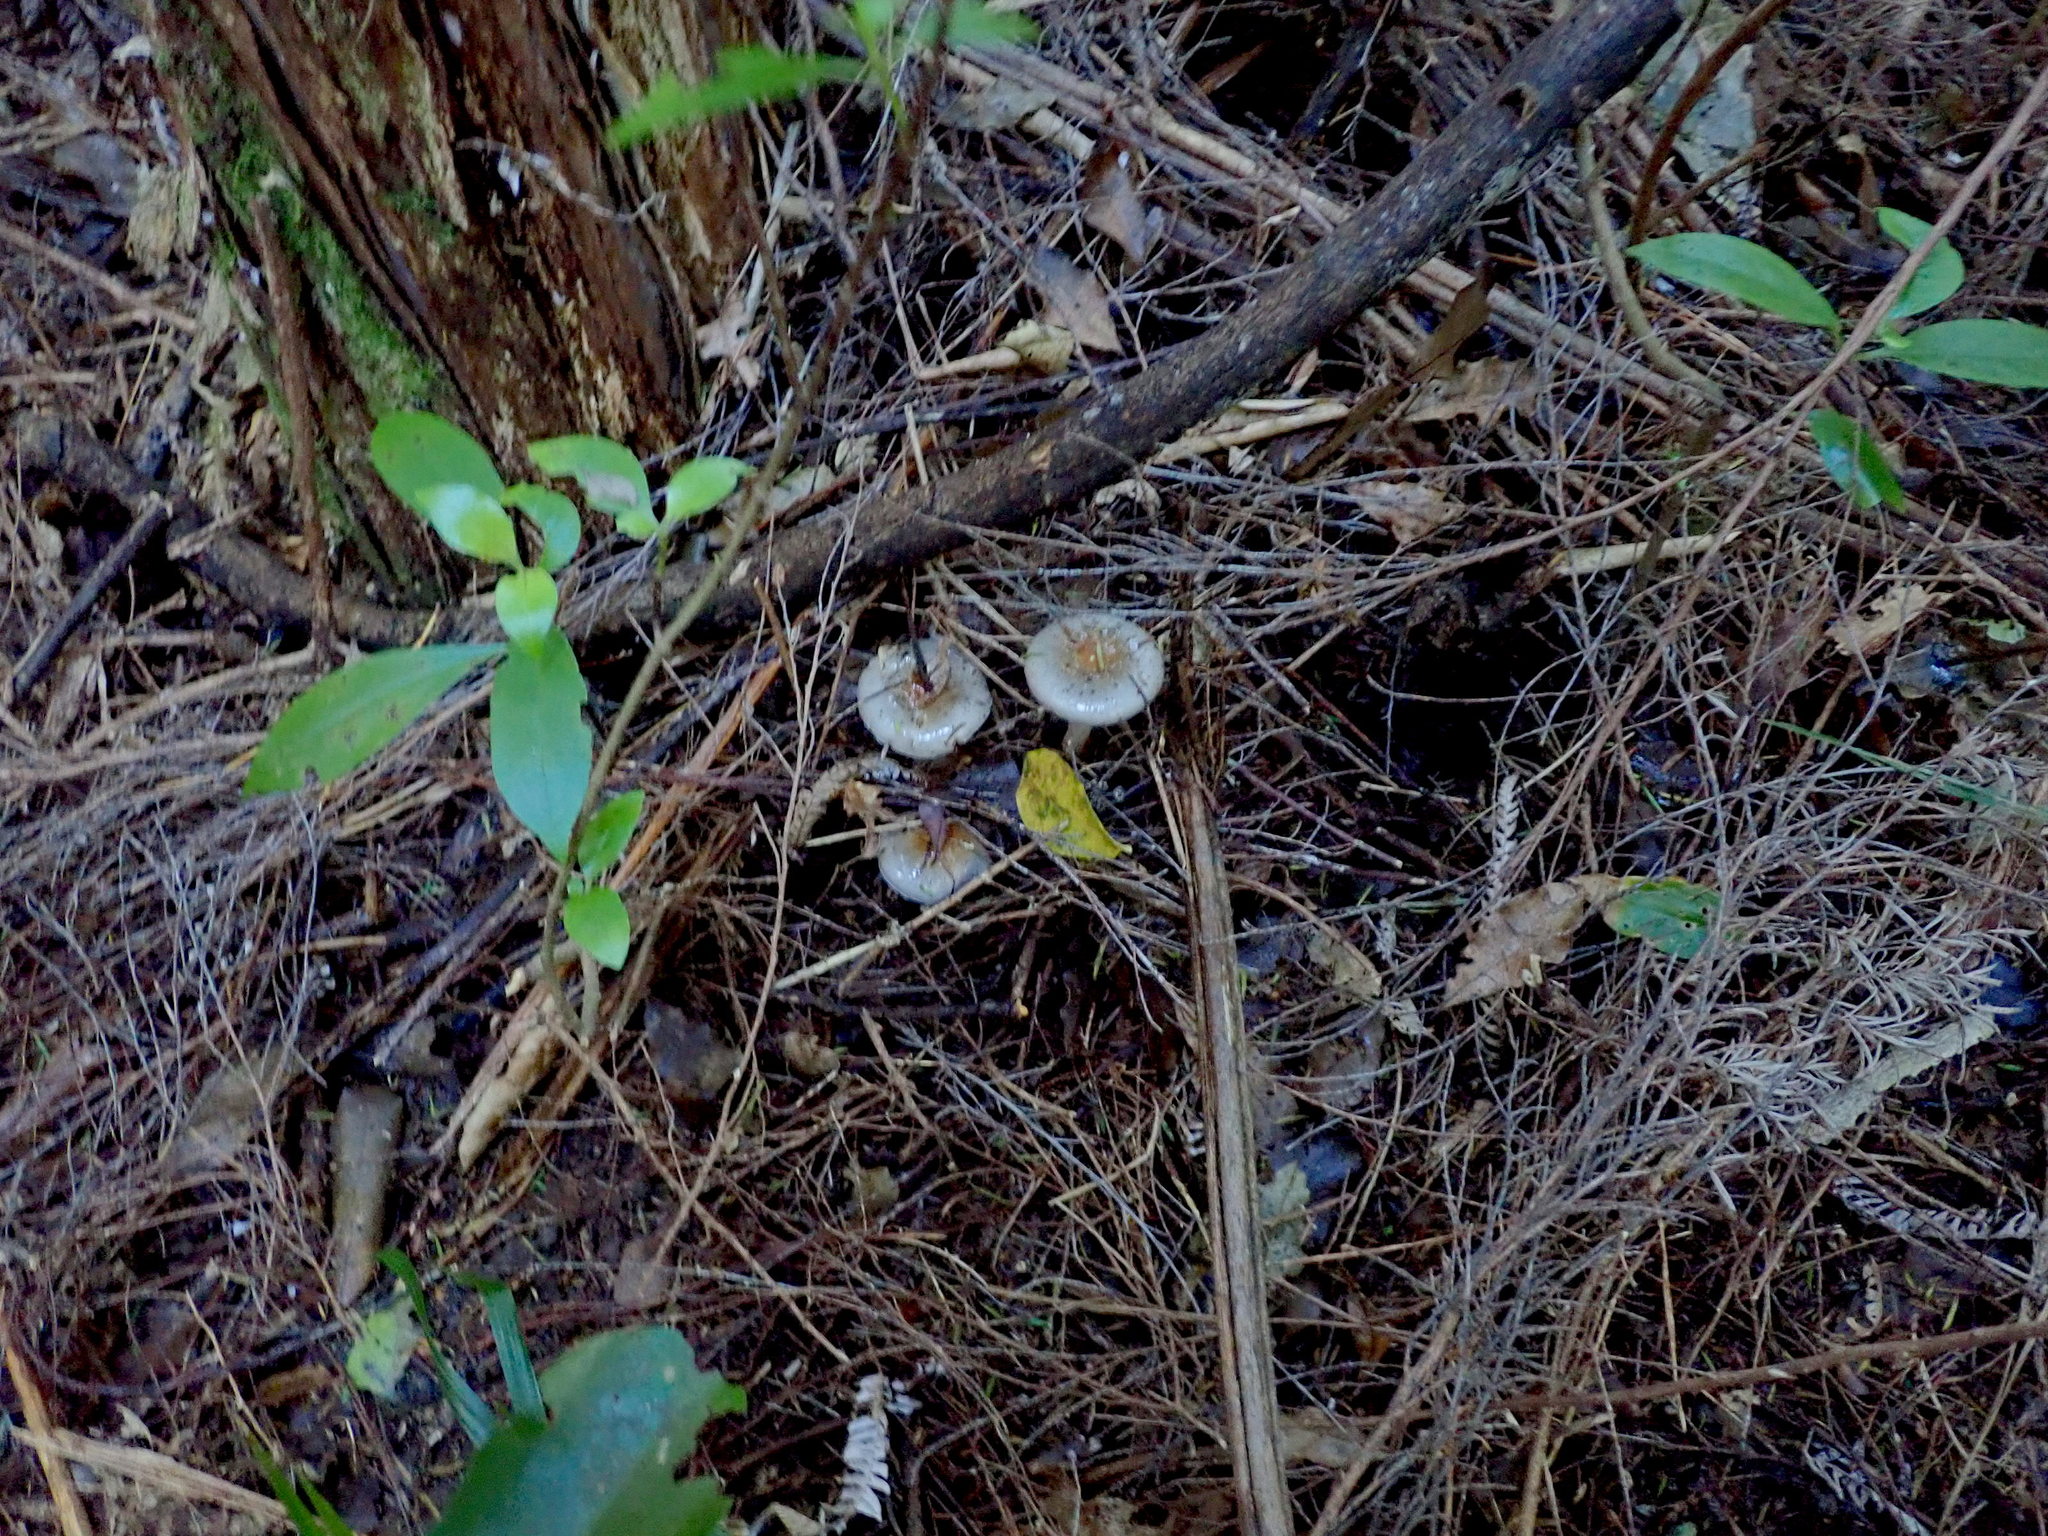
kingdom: Fungi
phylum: Basidiomycota
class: Agaricomycetes
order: Agaricales
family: Cortinariaceae
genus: Cortinarius
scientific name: Cortinarius rotundisporus
